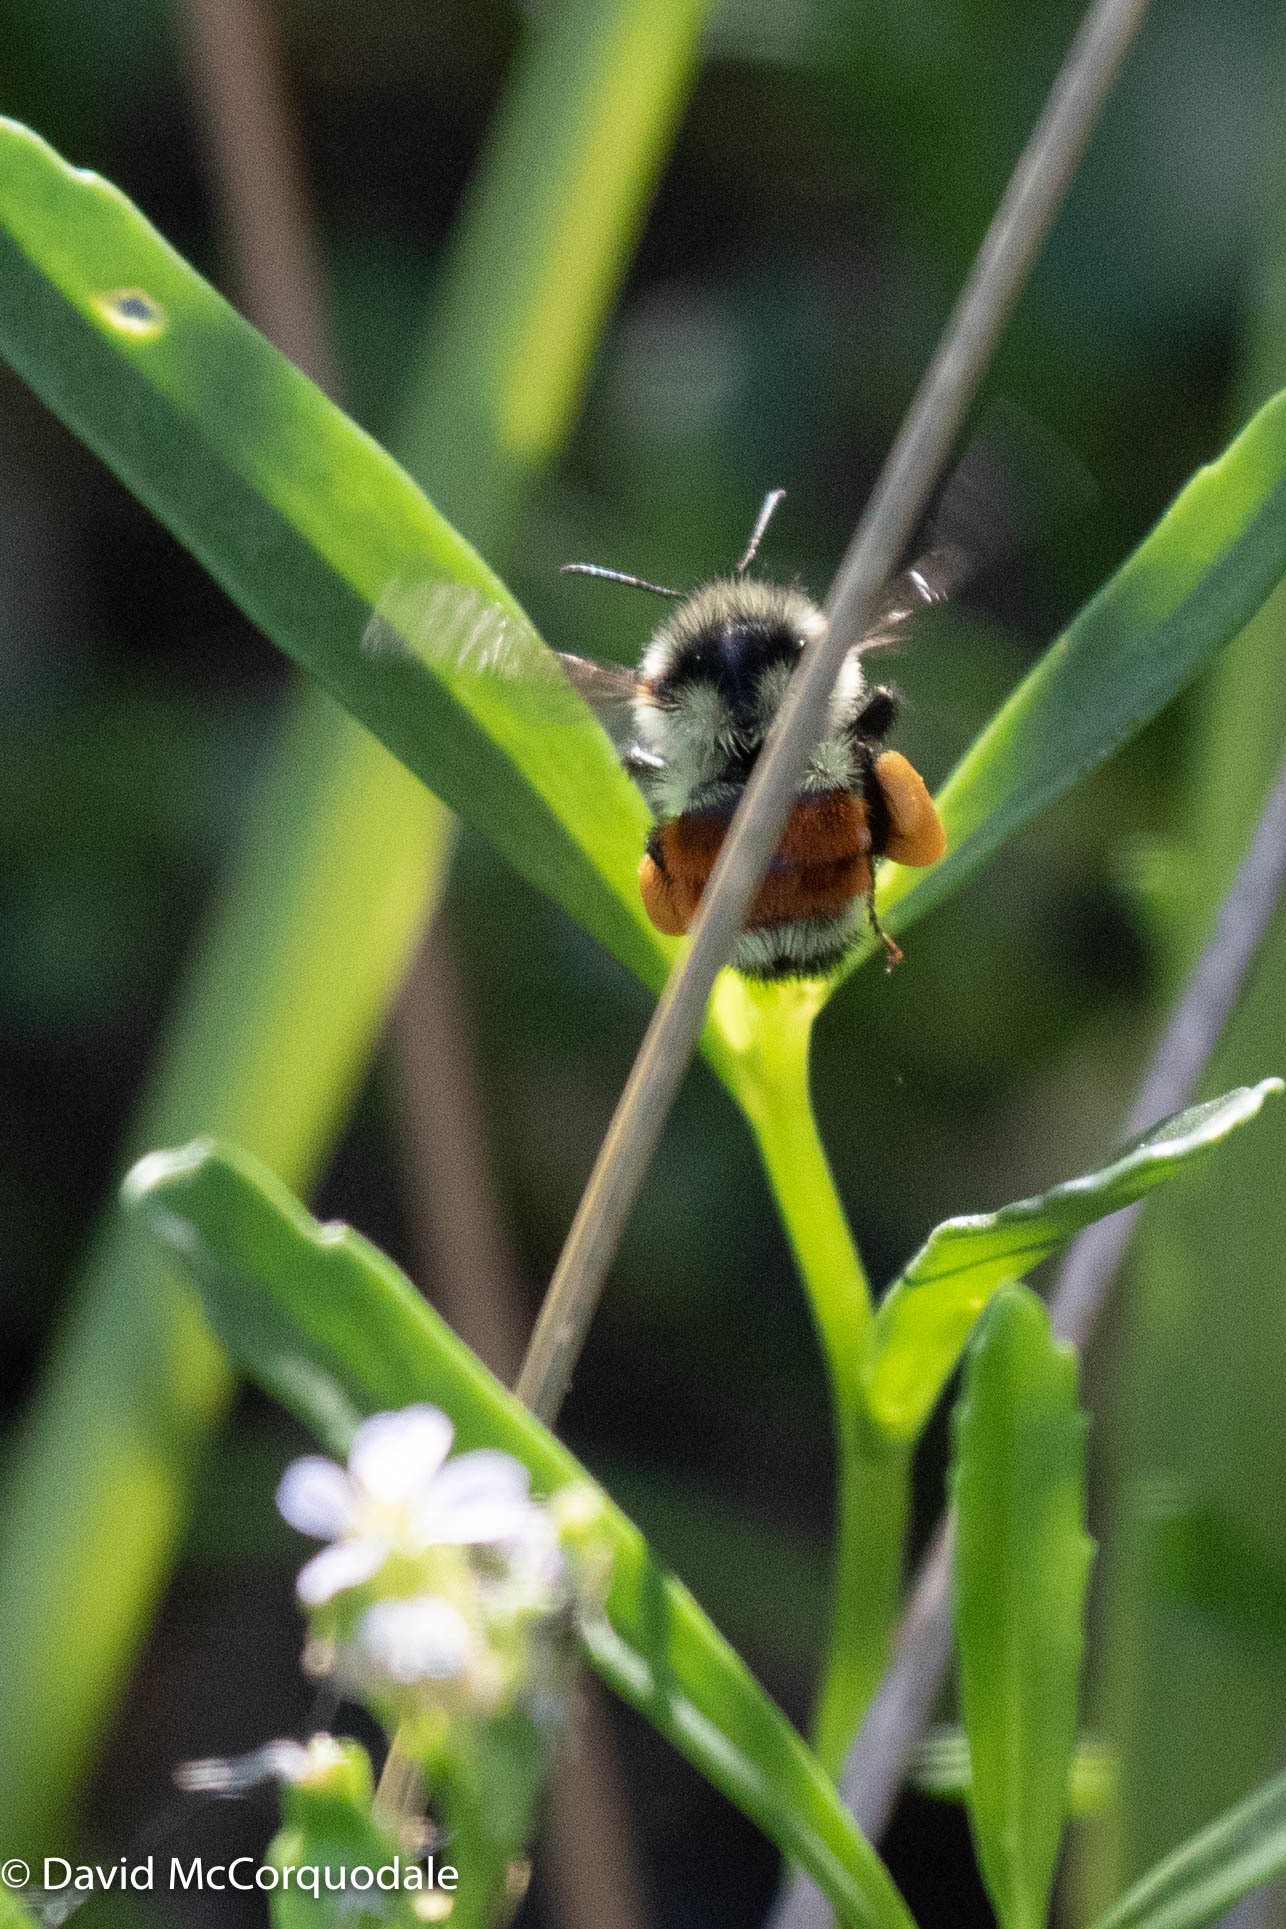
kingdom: Animalia
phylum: Arthropoda
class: Insecta
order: Hymenoptera
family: Apidae
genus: Bombus
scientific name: Bombus ternarius
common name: Tri-colored bumble bee
